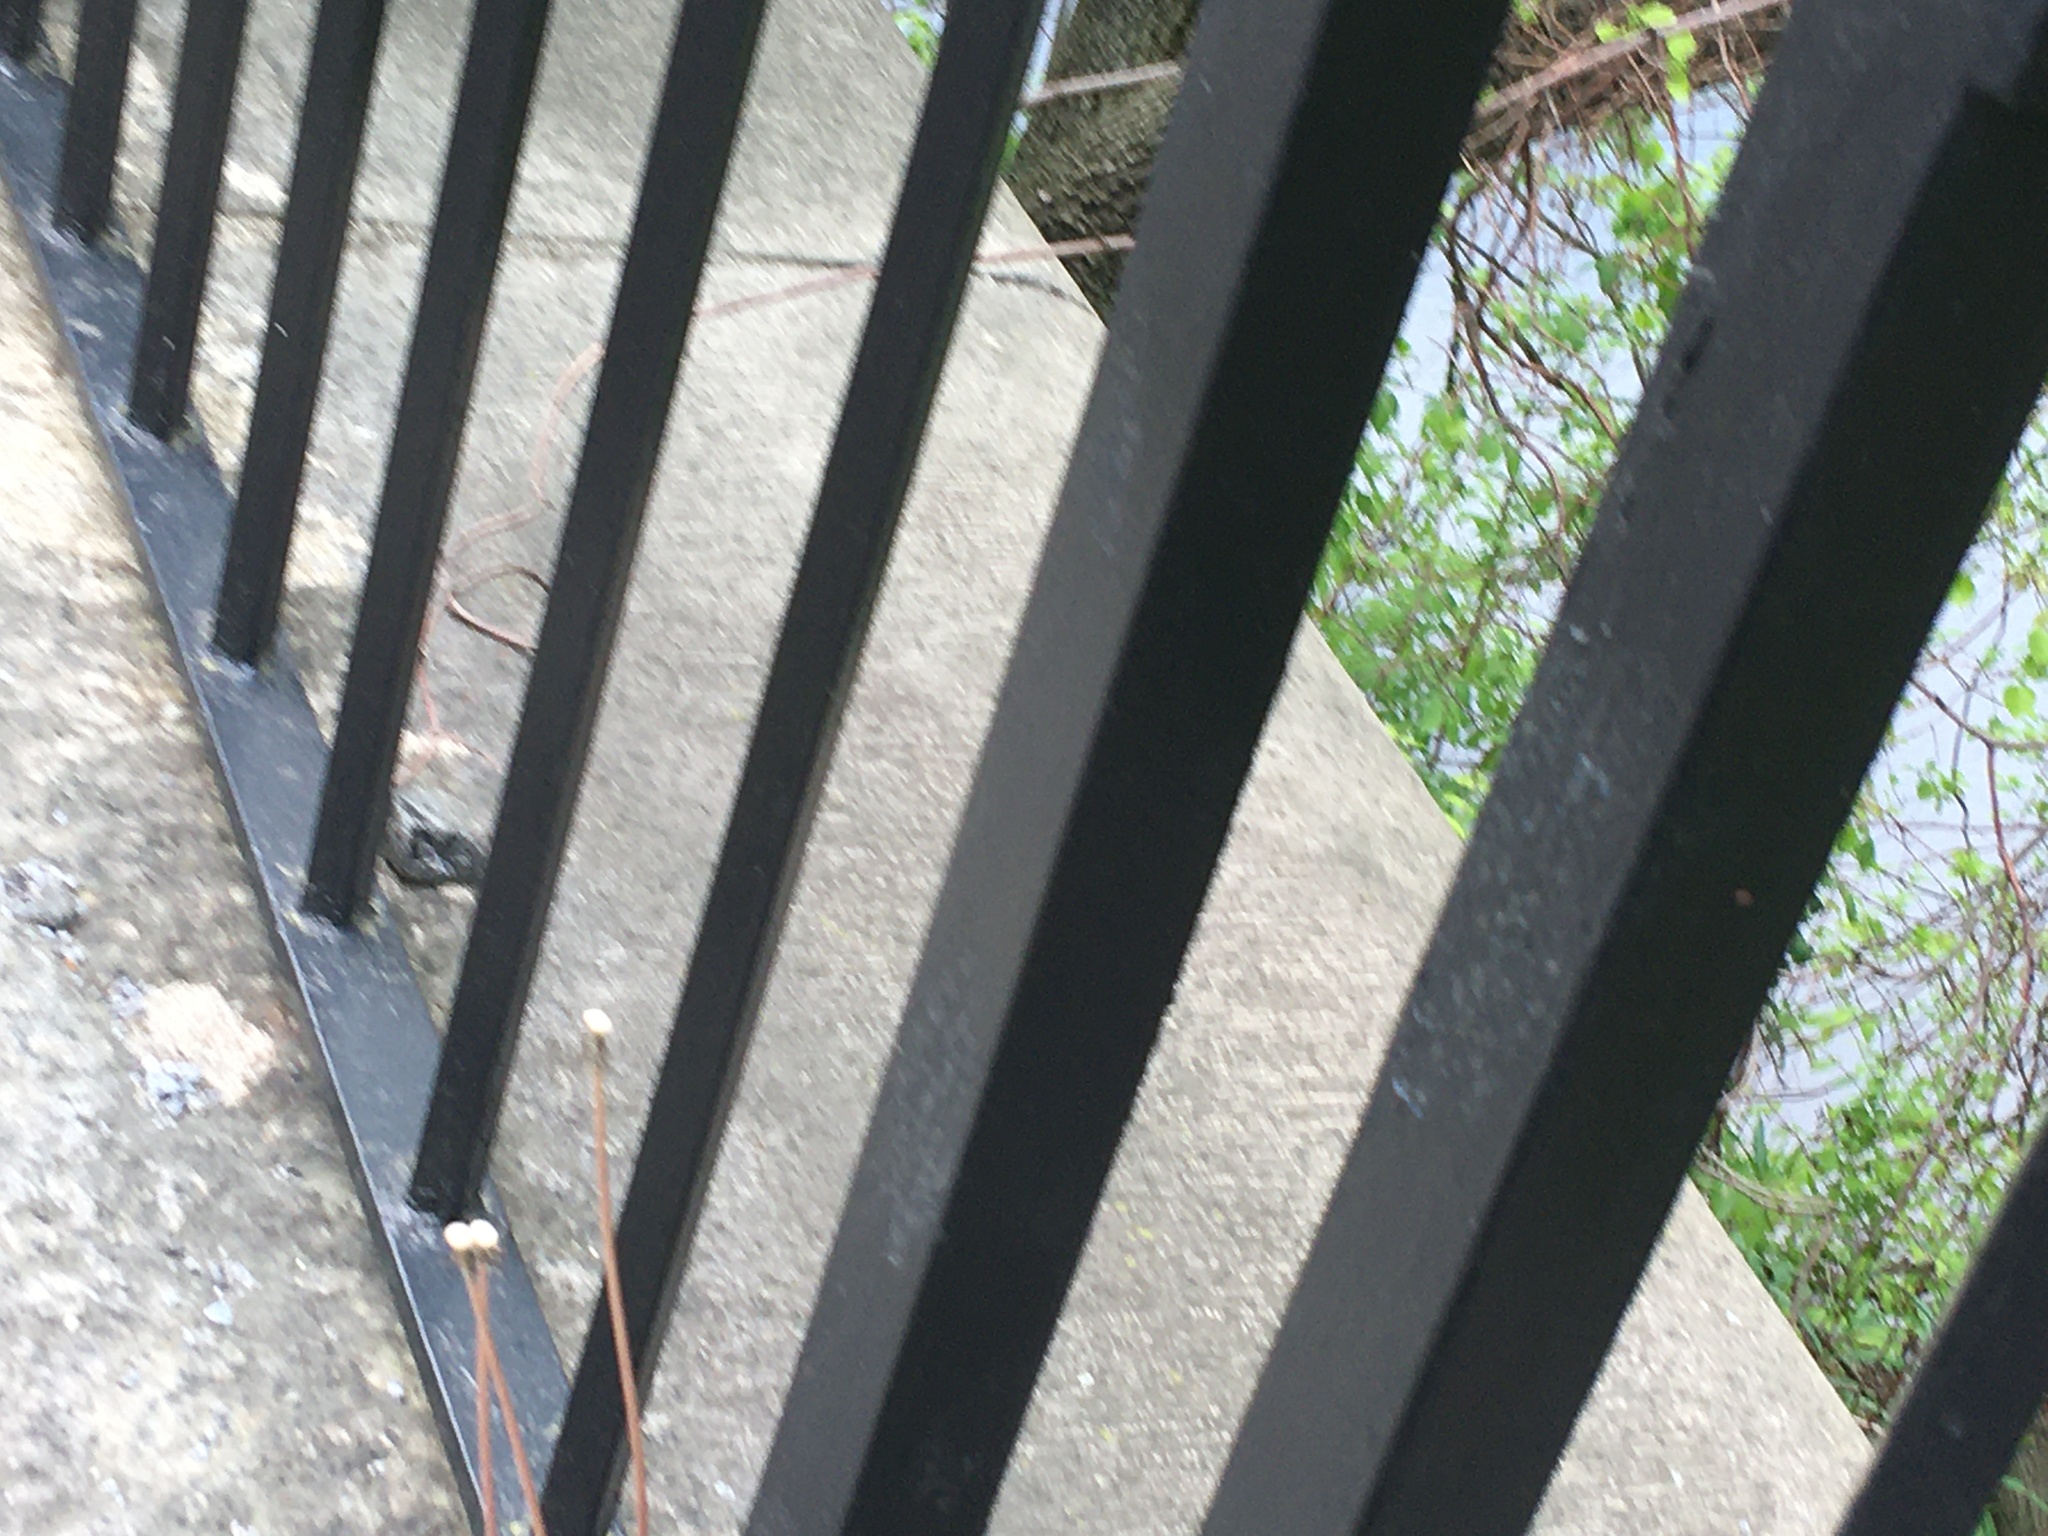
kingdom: Plantae
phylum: Tracheophyta
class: Magnoliopsida
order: Asterales
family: Asteraceae
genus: Taraxacum
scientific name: Taraxacum officinale
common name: Common dandelion
